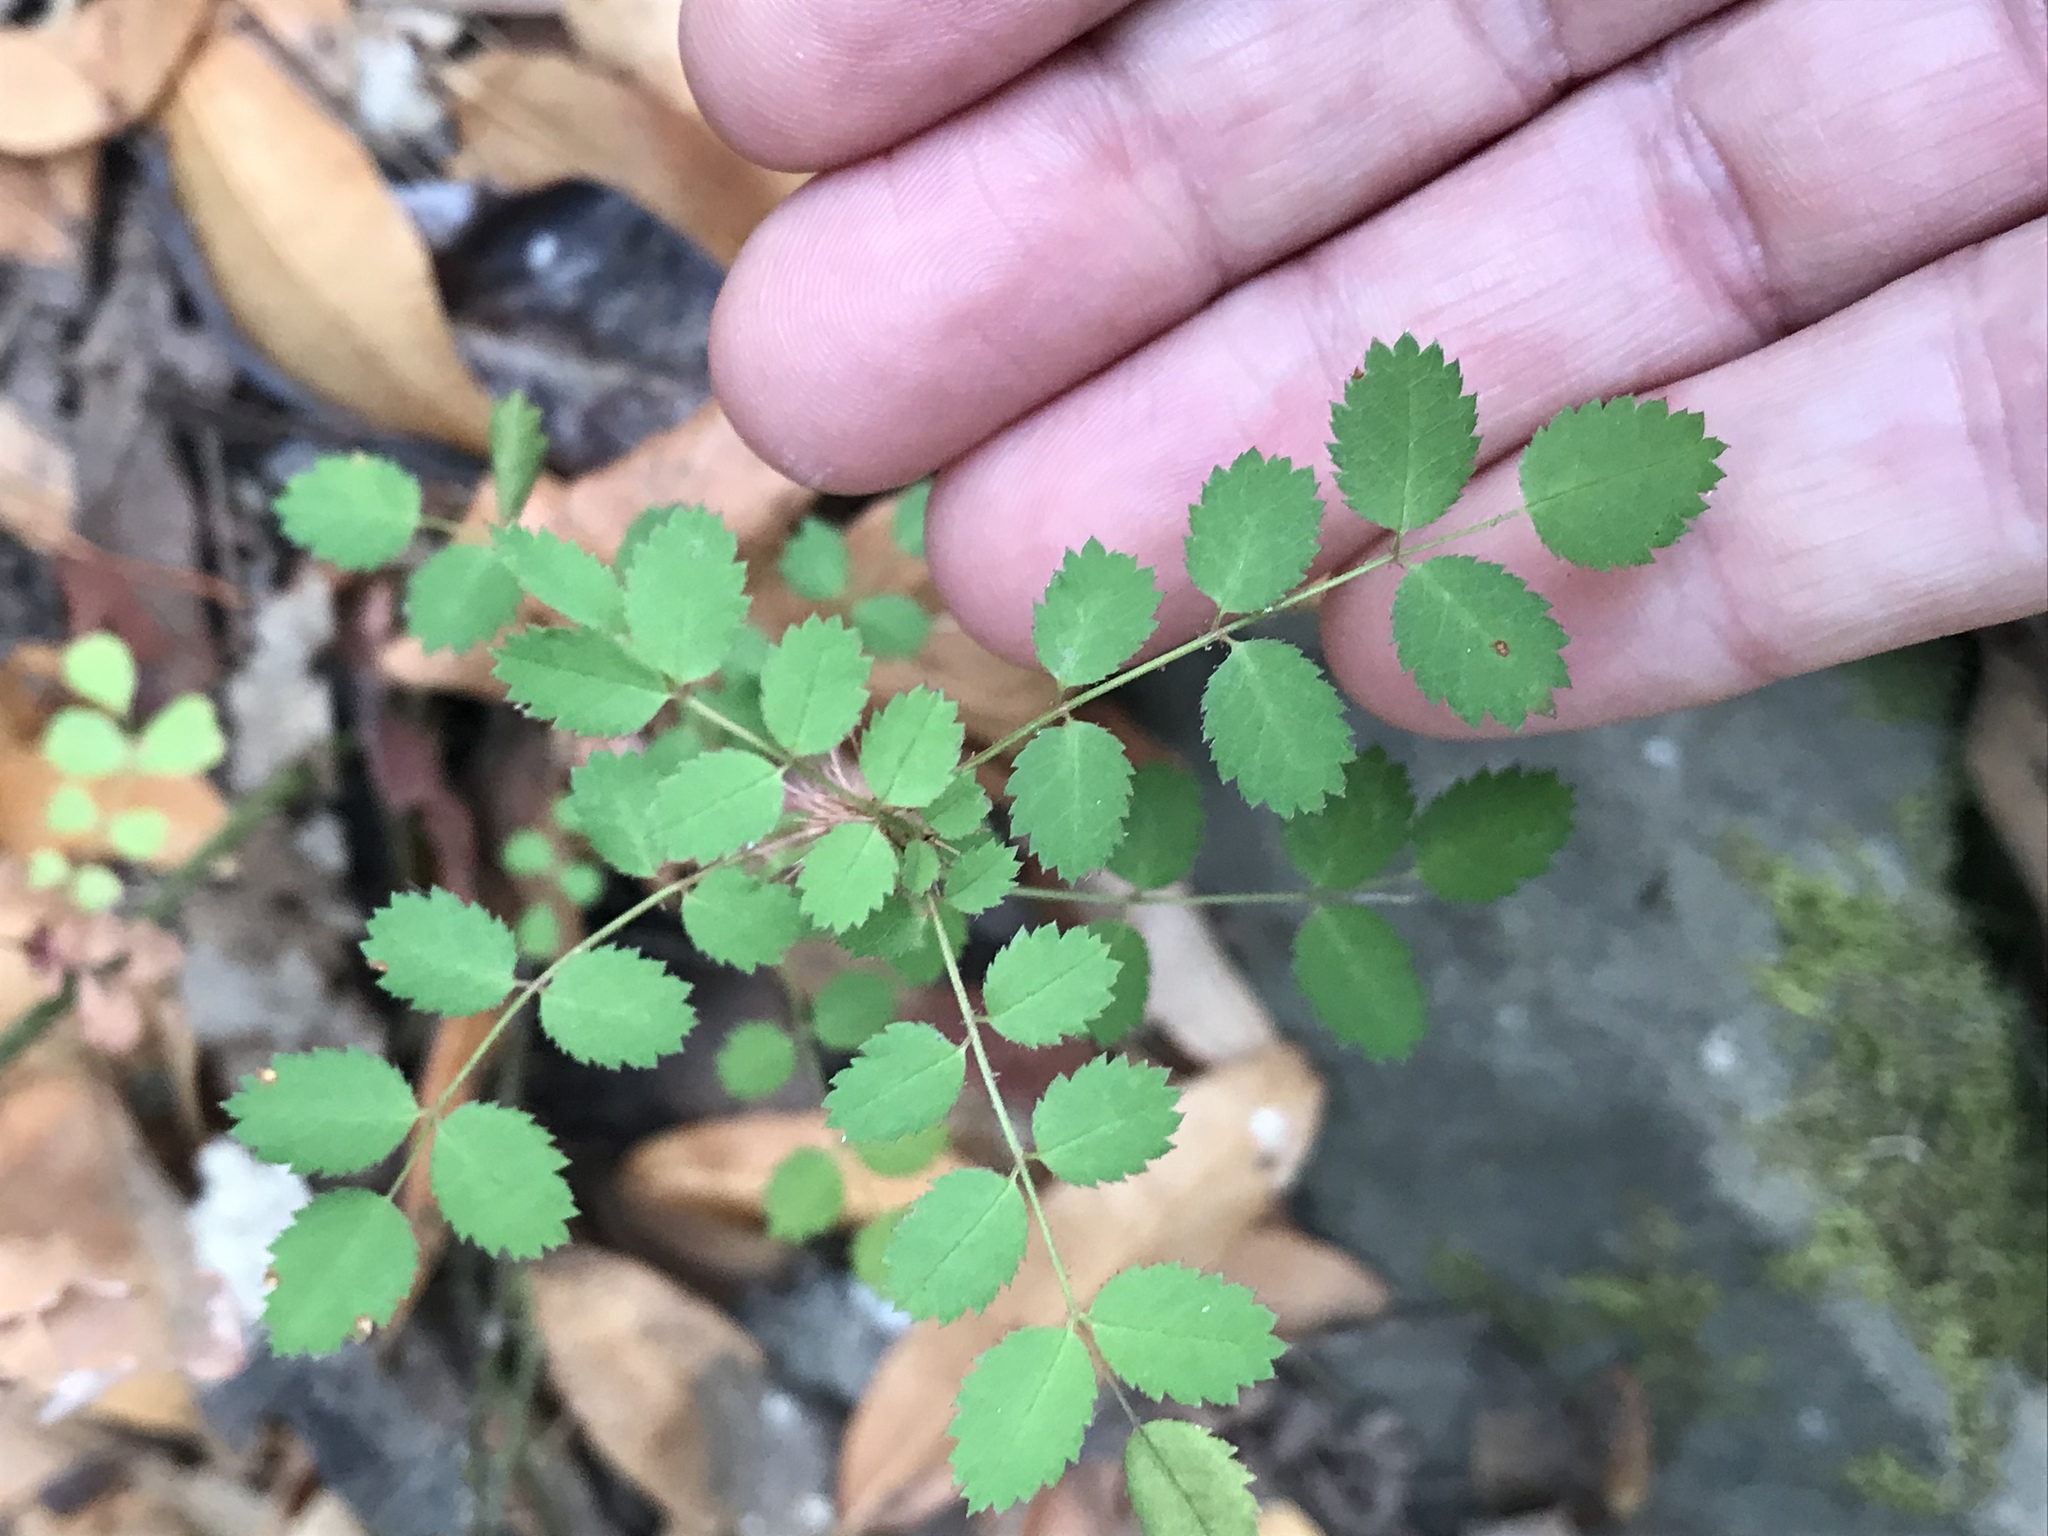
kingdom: Plantae
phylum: Tracheophyta
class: Magnoliopsida
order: Rosales
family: Rosaceae
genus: Rosa
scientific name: Rosa gymnocarpa
